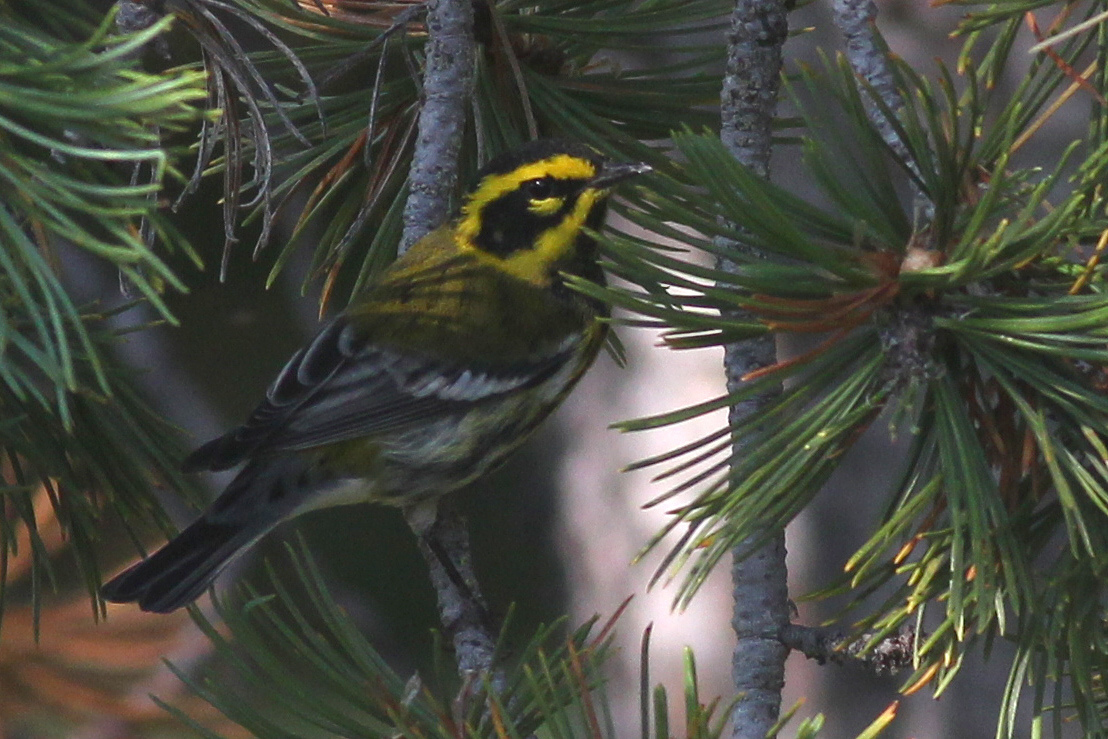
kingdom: Animalia
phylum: Chordata
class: Aves
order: Passeriformes
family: Parulidae
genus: Setophaga
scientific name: Setophaga townsendi
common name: Townsend's warbler
